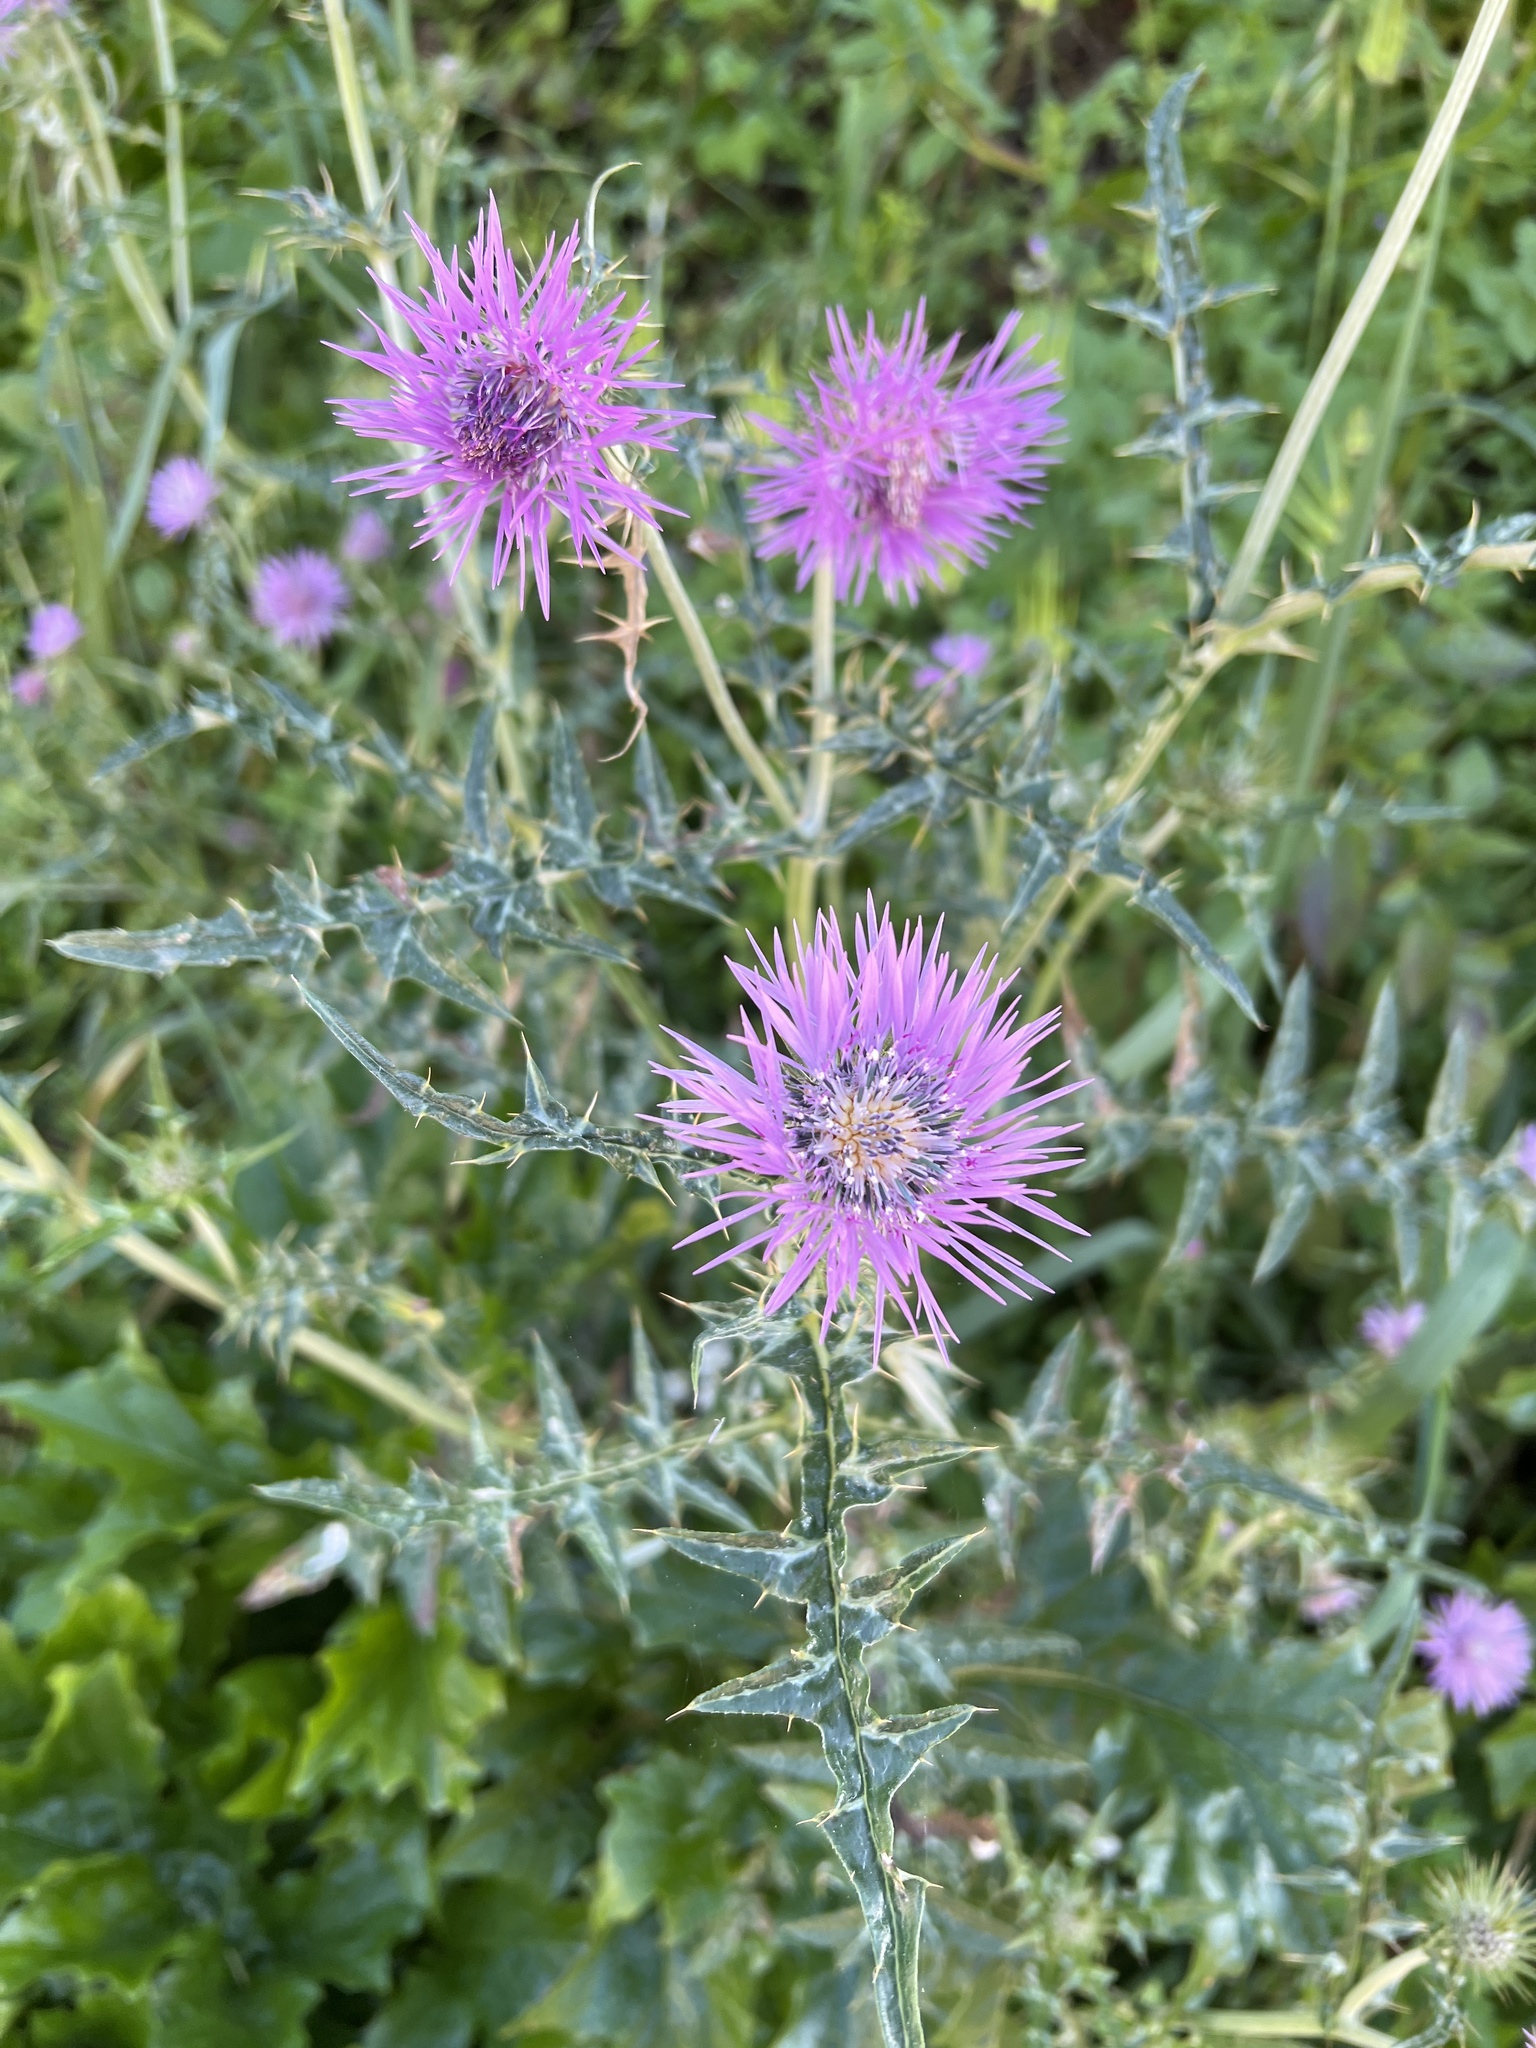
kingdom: Plantae
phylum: Tracheophyta
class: Magnoliopsida
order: Asterales
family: Asteraceae
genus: Galactites
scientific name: Galactites tomentosa
